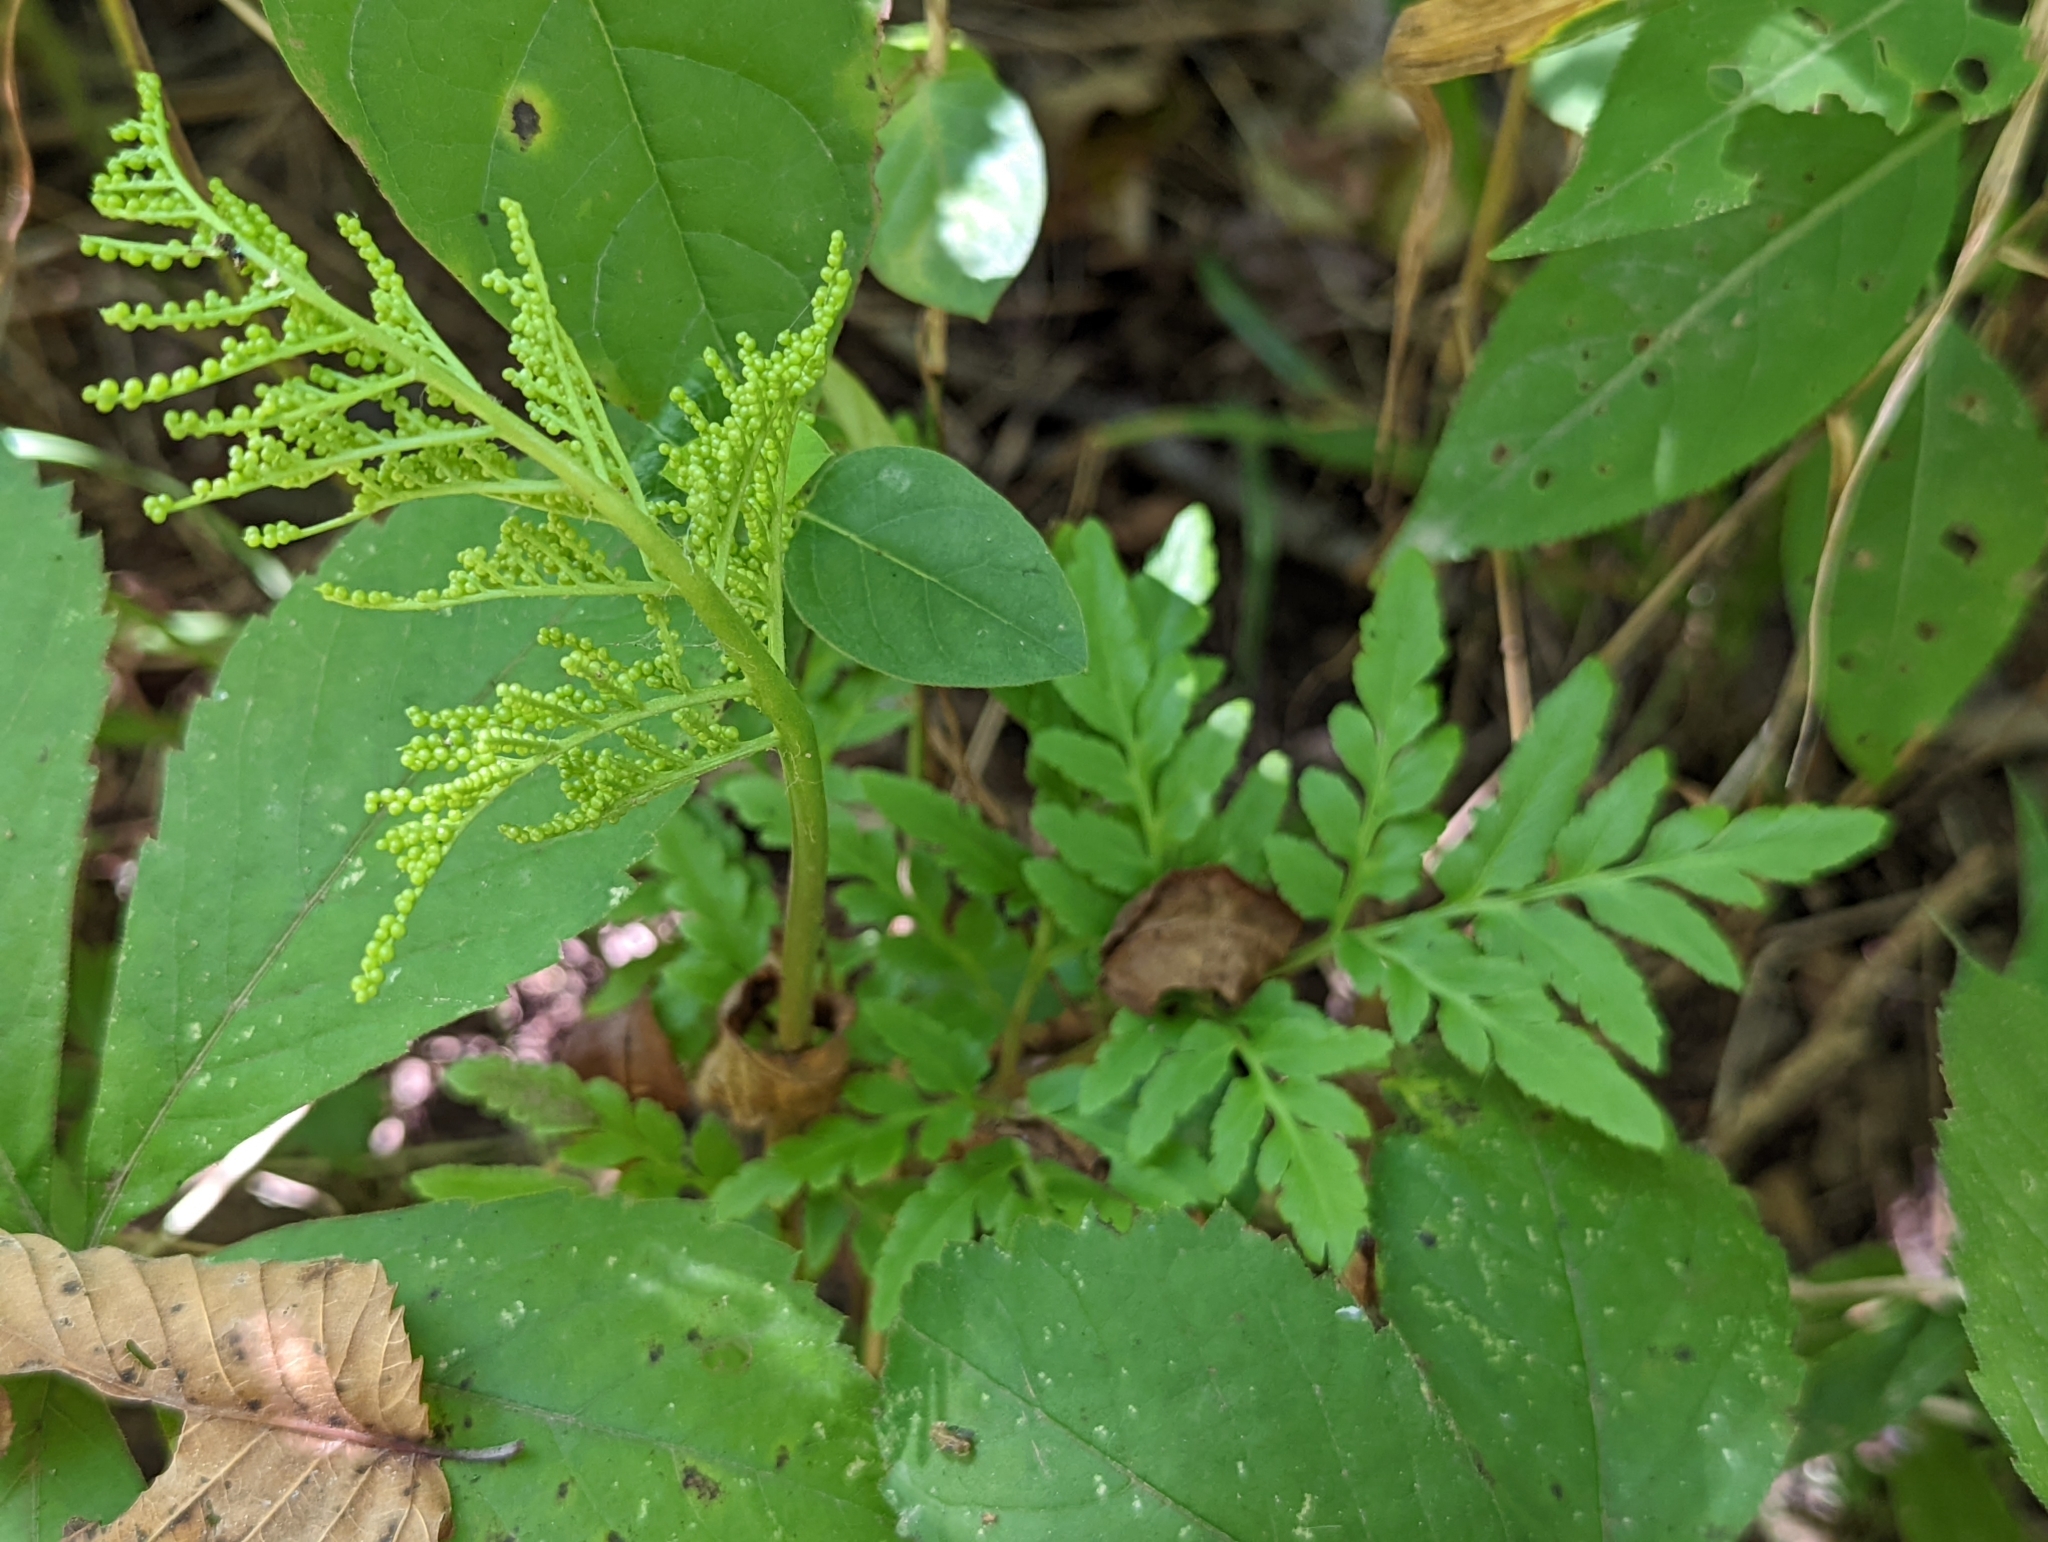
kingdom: Plantae
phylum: Tracheophyta
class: Polypodiopsida
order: Ophioglossales
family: Ophioglossaceae
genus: Sceptridium
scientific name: Sceptridium dissectum
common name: Cut-leaved grapefern
